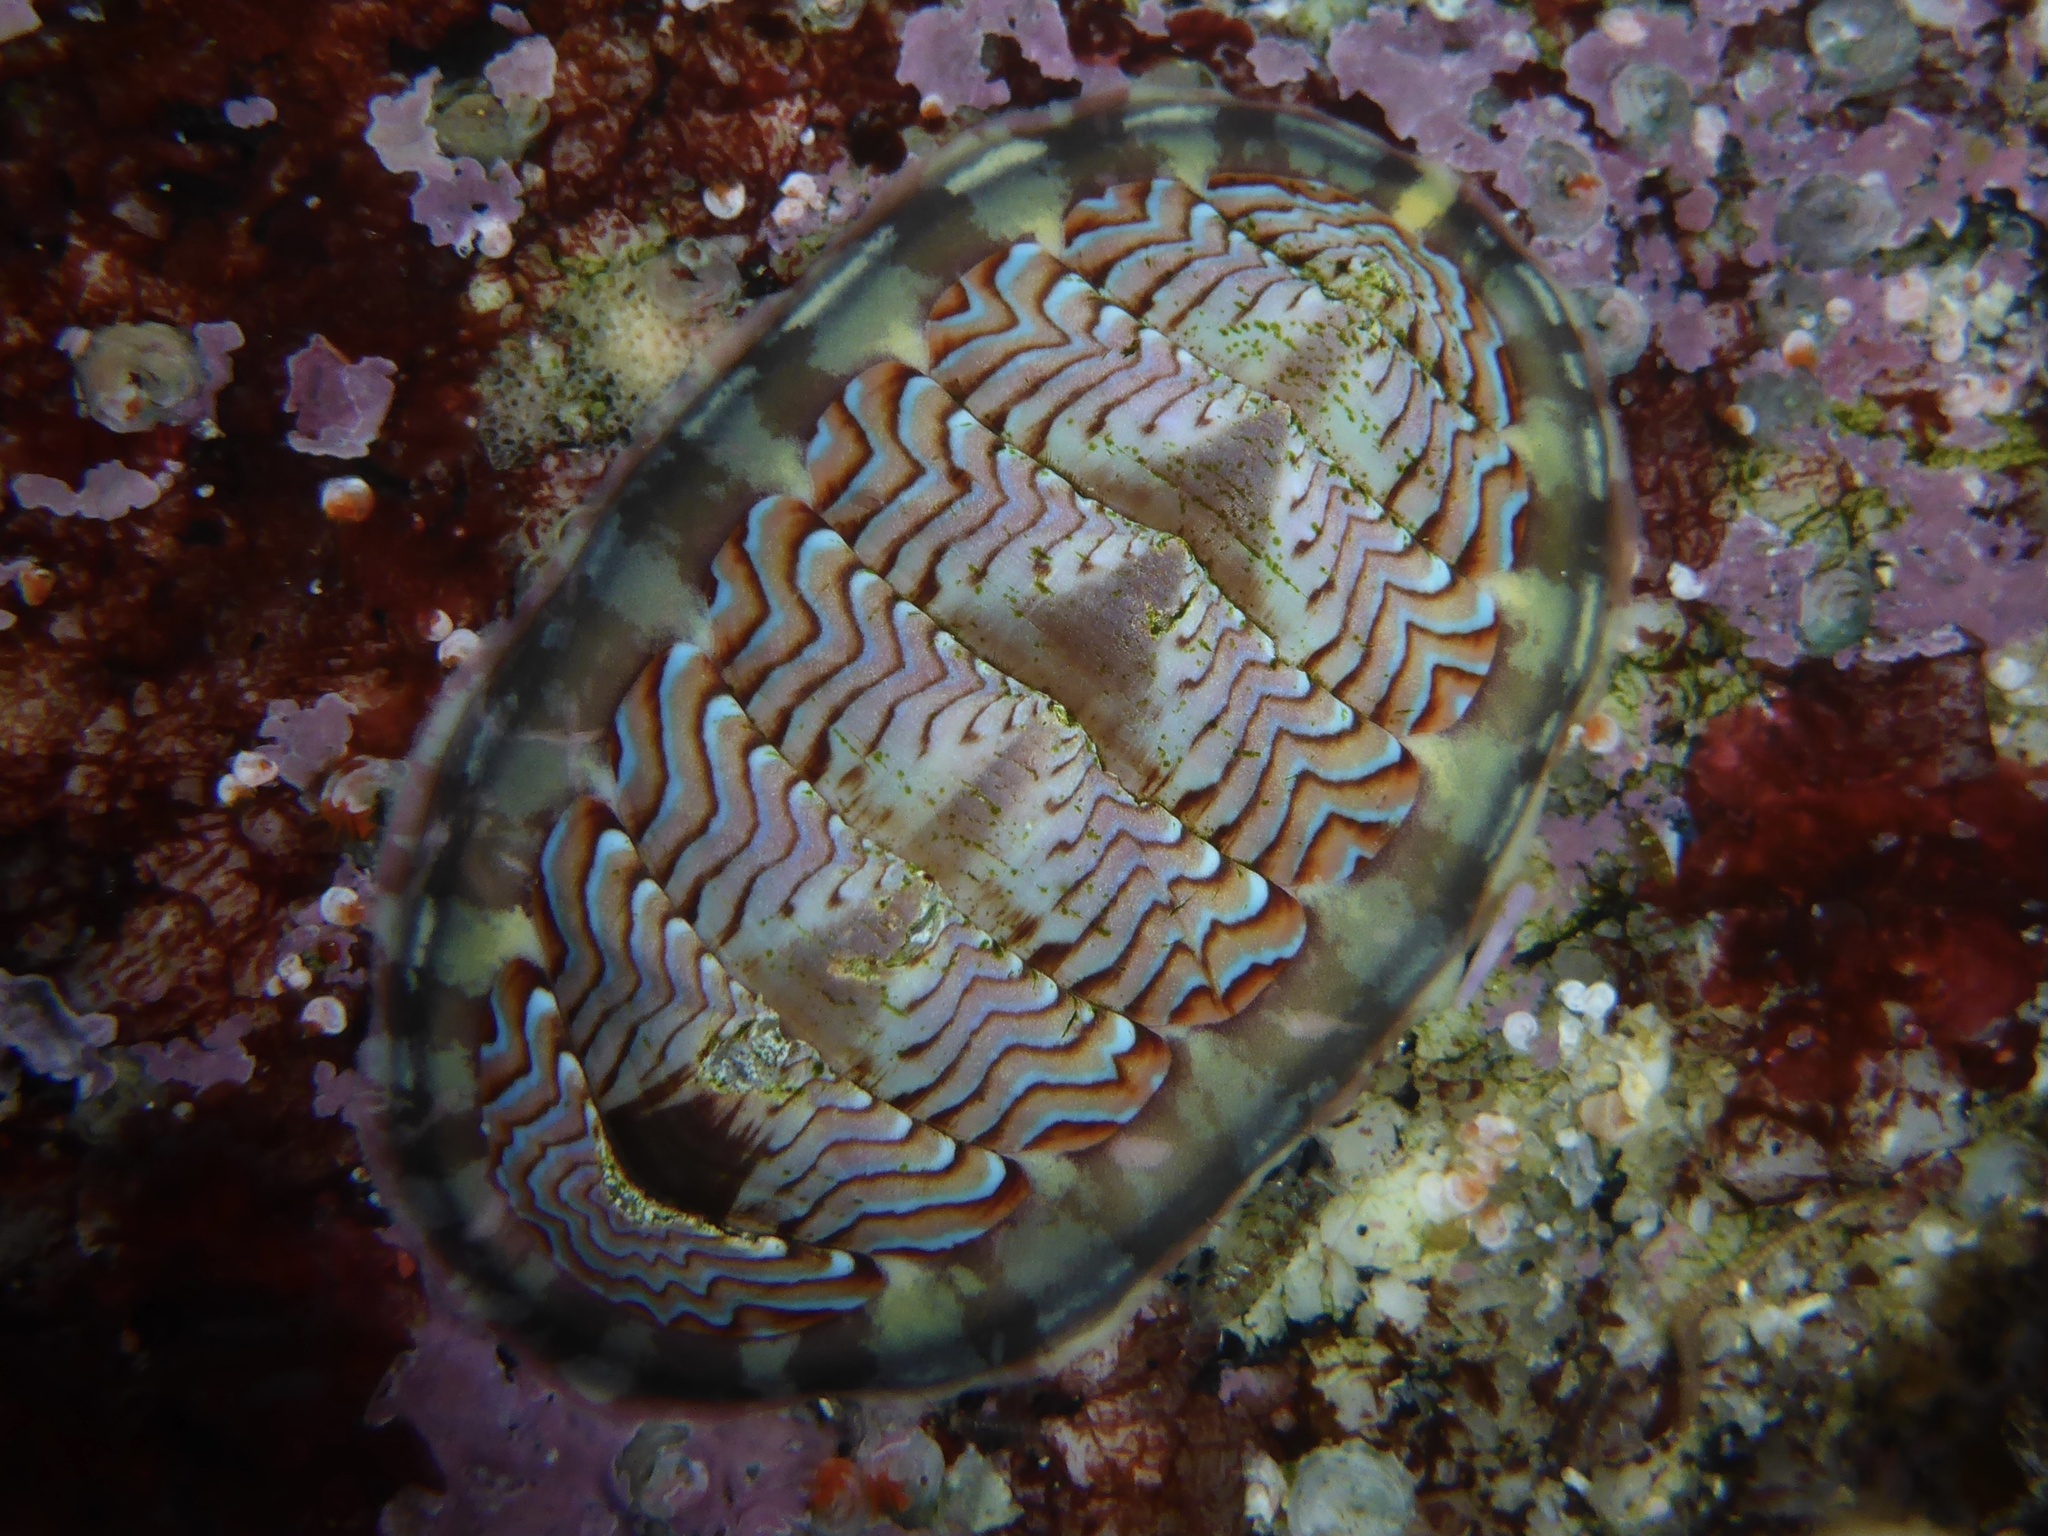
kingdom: Animalia
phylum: Mollusca
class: Polyplacophora
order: Chitonida
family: Tonicellidae
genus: Tonicella
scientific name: Tonicella lokii
